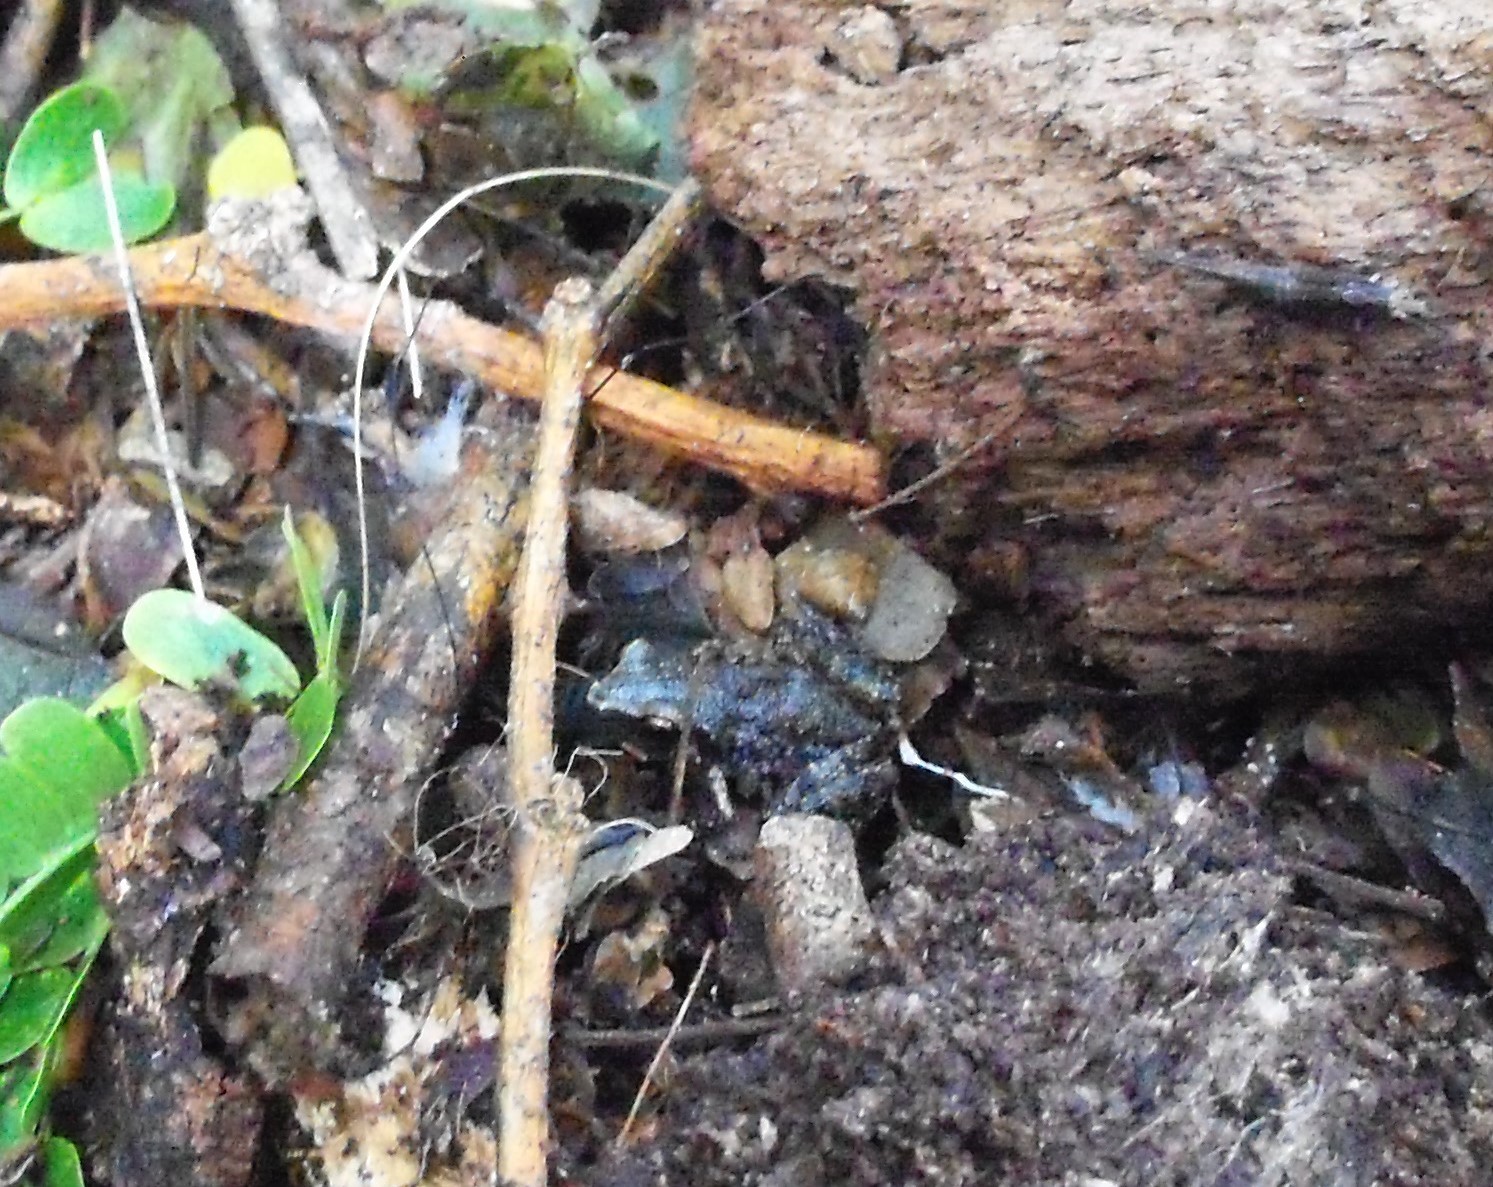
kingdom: Animalia
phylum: Chordata
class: Amphibia
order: Anura
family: Eleutherodactylidae
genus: Eleutherodactylus
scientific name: Eleutherodactylus campi
